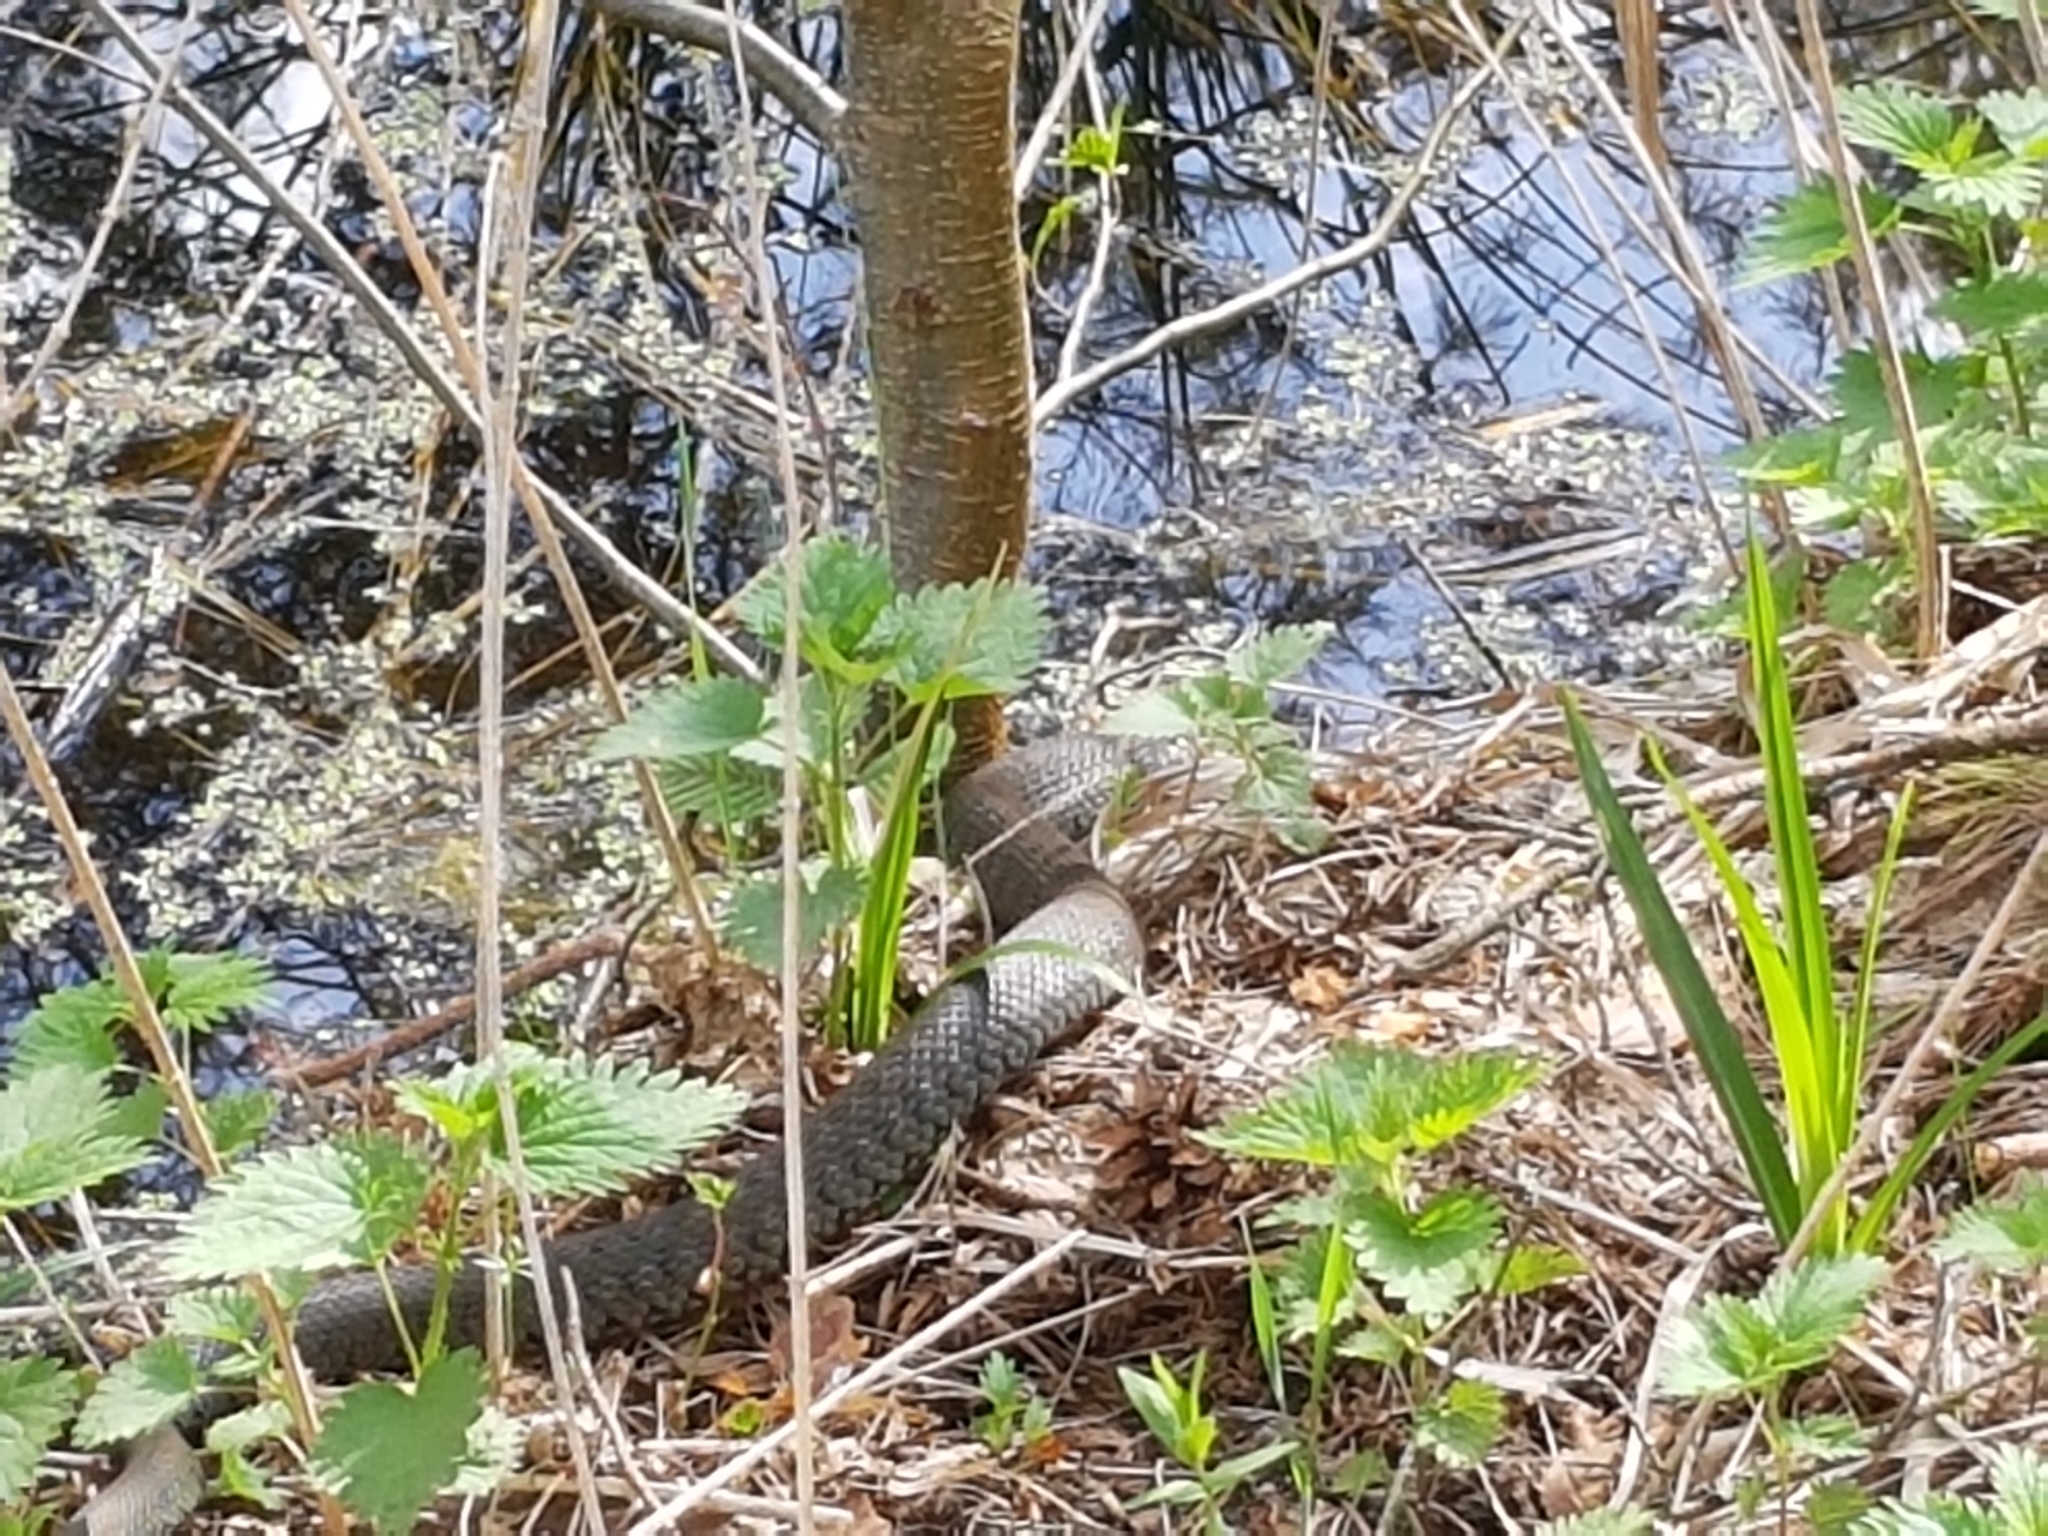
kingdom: Animalia
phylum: Chordata
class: Squamata
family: Colubridae
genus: Natrix
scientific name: Natrix natrix
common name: Grass snake
